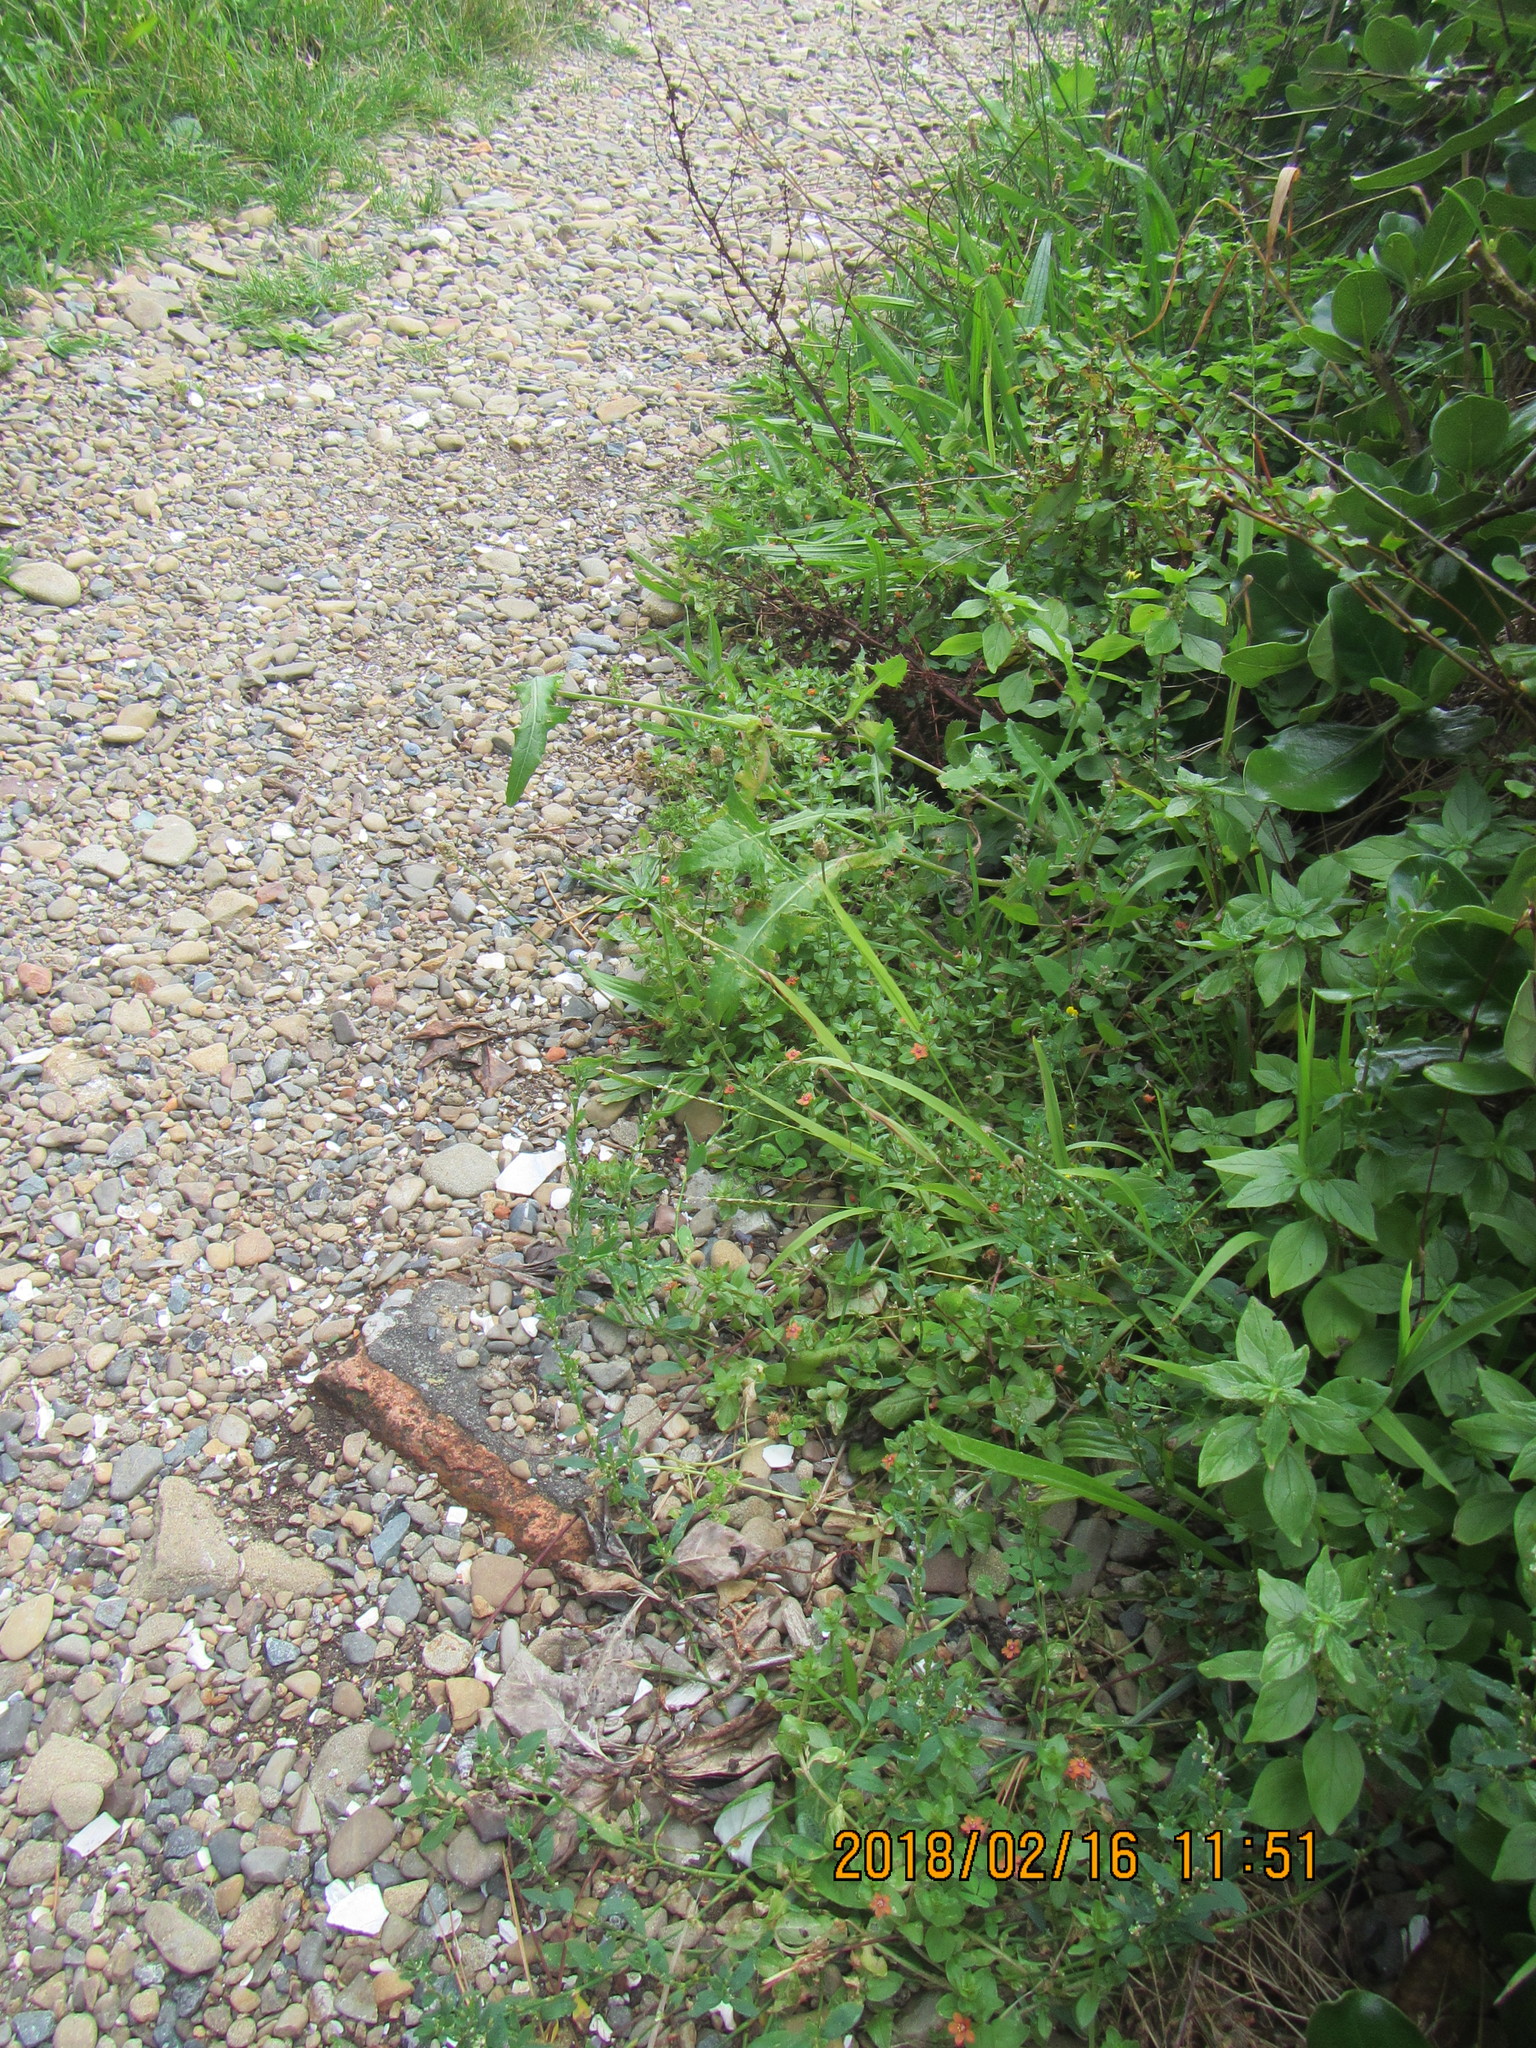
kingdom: Plantae
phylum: Tracheophyta
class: Magnoliopsida
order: Ericales
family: Primulaceae
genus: Lysimachia
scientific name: Lysimachia arvensis
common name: Scarlet pimpernel
